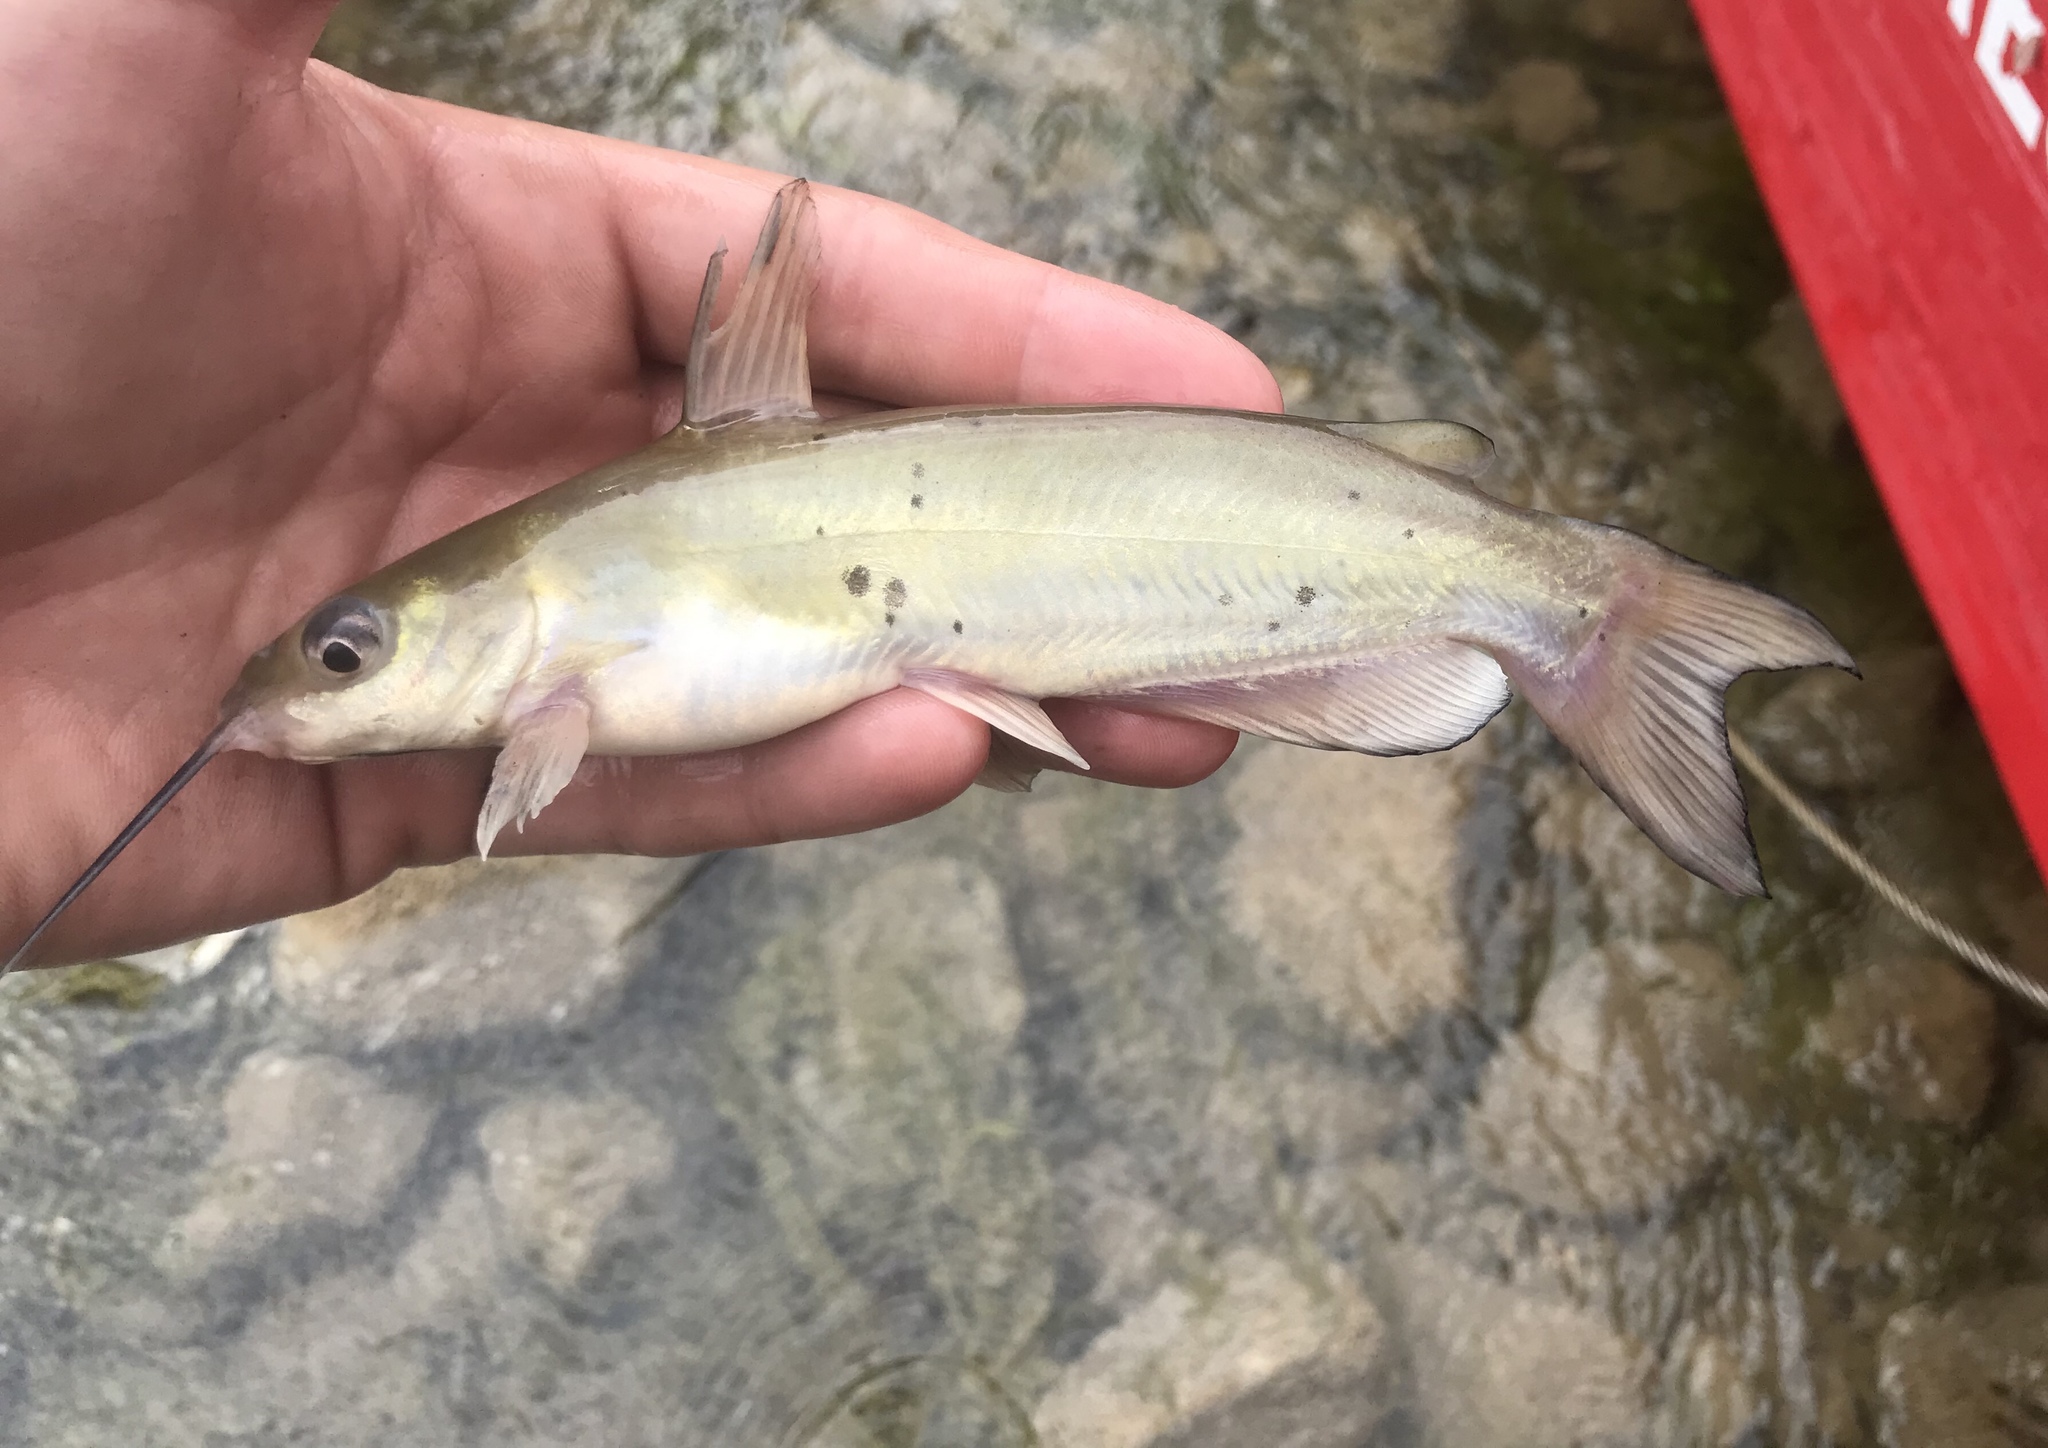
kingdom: Animalia
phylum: Chordata
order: Siluriformes
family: Ictaluridae
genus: Ictalurus
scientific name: Ictalurus punctatus
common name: Channel catfish
